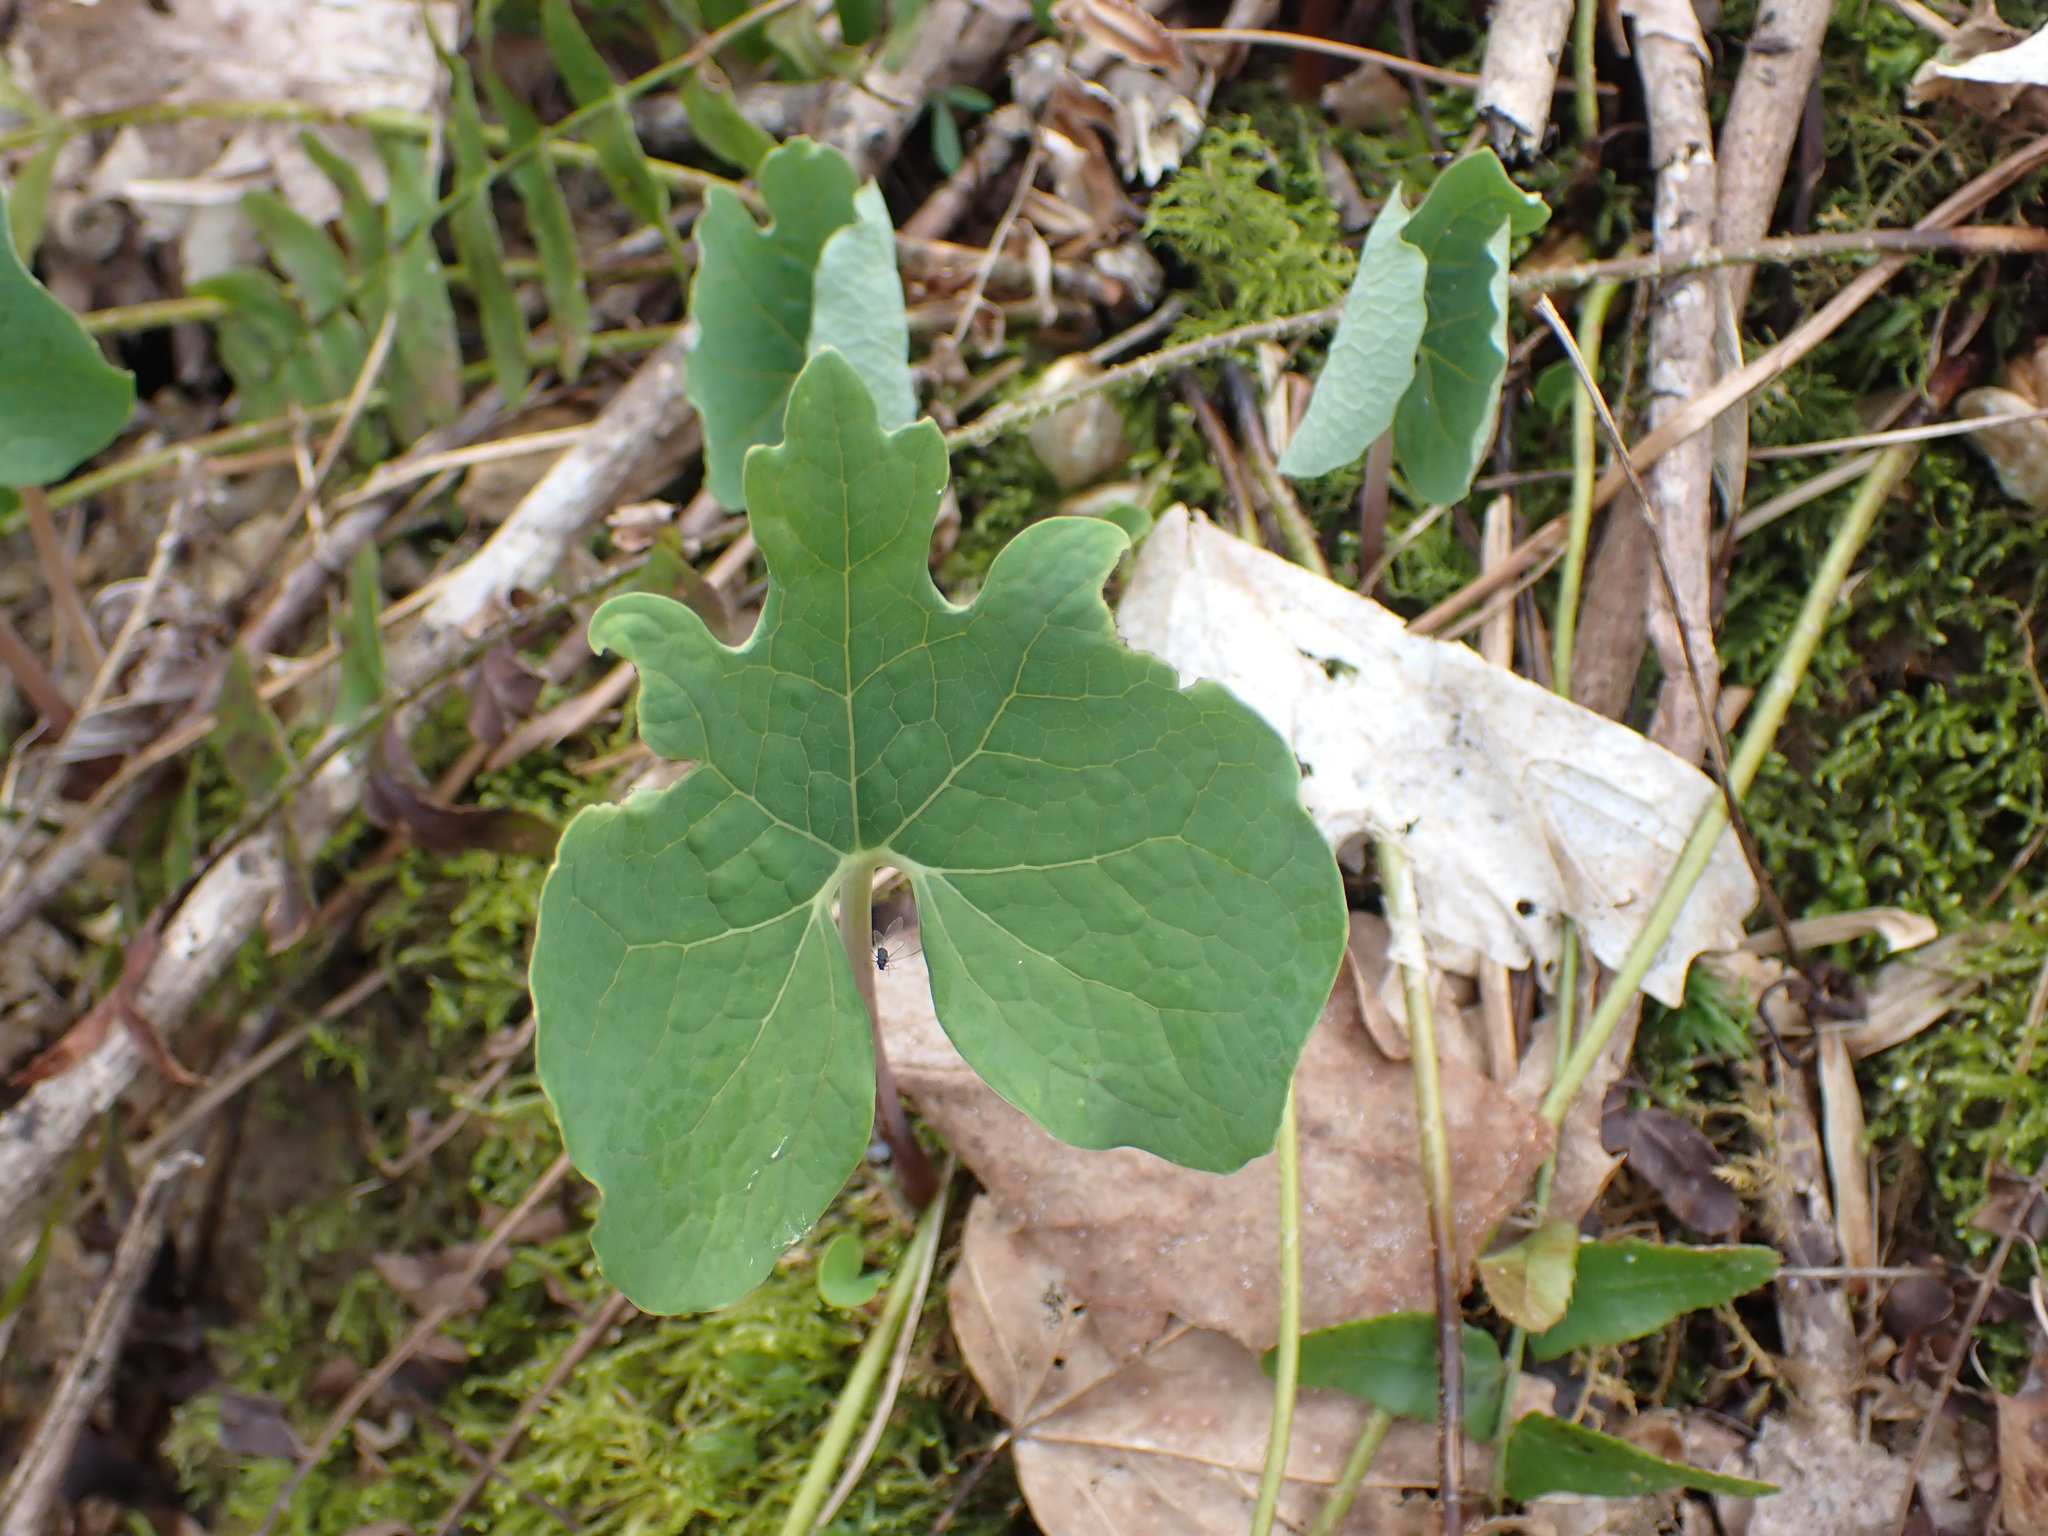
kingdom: Plantae
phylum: Tracheophyta
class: Magnoliopsida
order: Ranunculales
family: Papaveraceae
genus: Sanguinaria
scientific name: Sanguinaria canadensis
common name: Bloodroot
